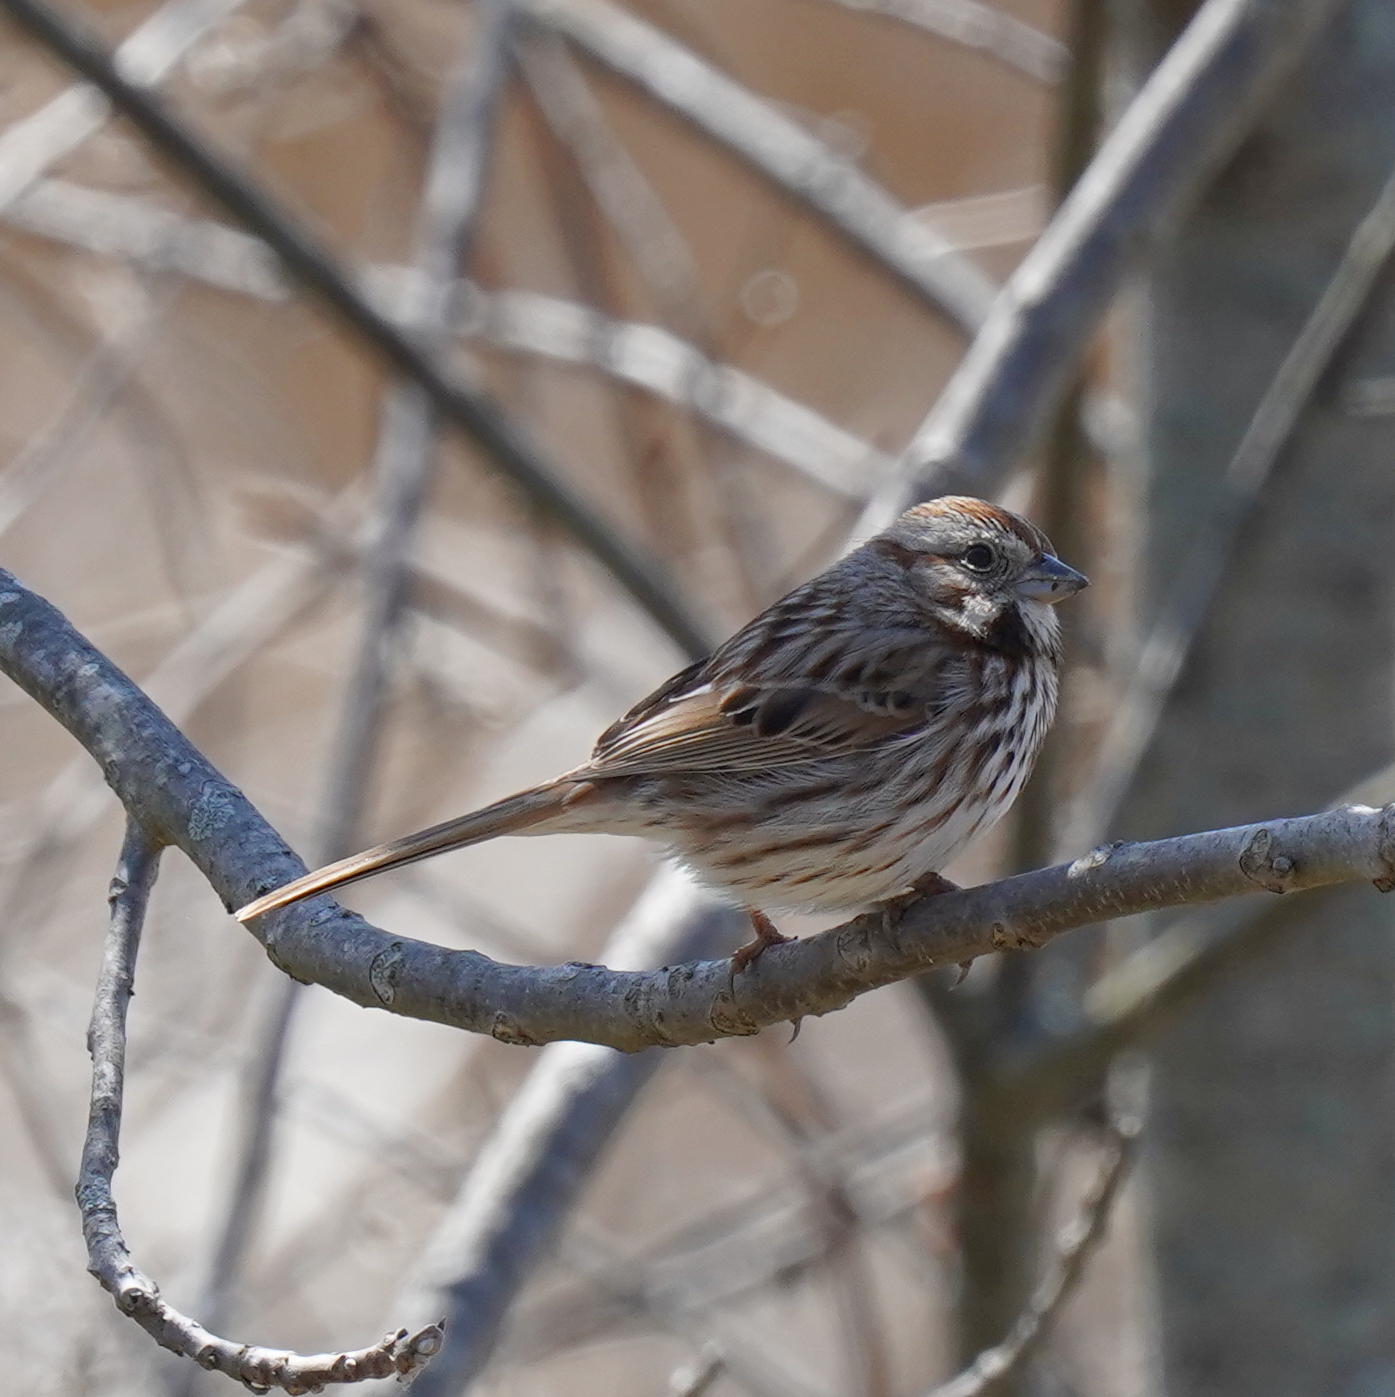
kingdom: Animalia
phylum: Chordata
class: Aves
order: Passeriformes
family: Passerellidae
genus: Melospiza
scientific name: Melospiza melodia
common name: Song sparrow
